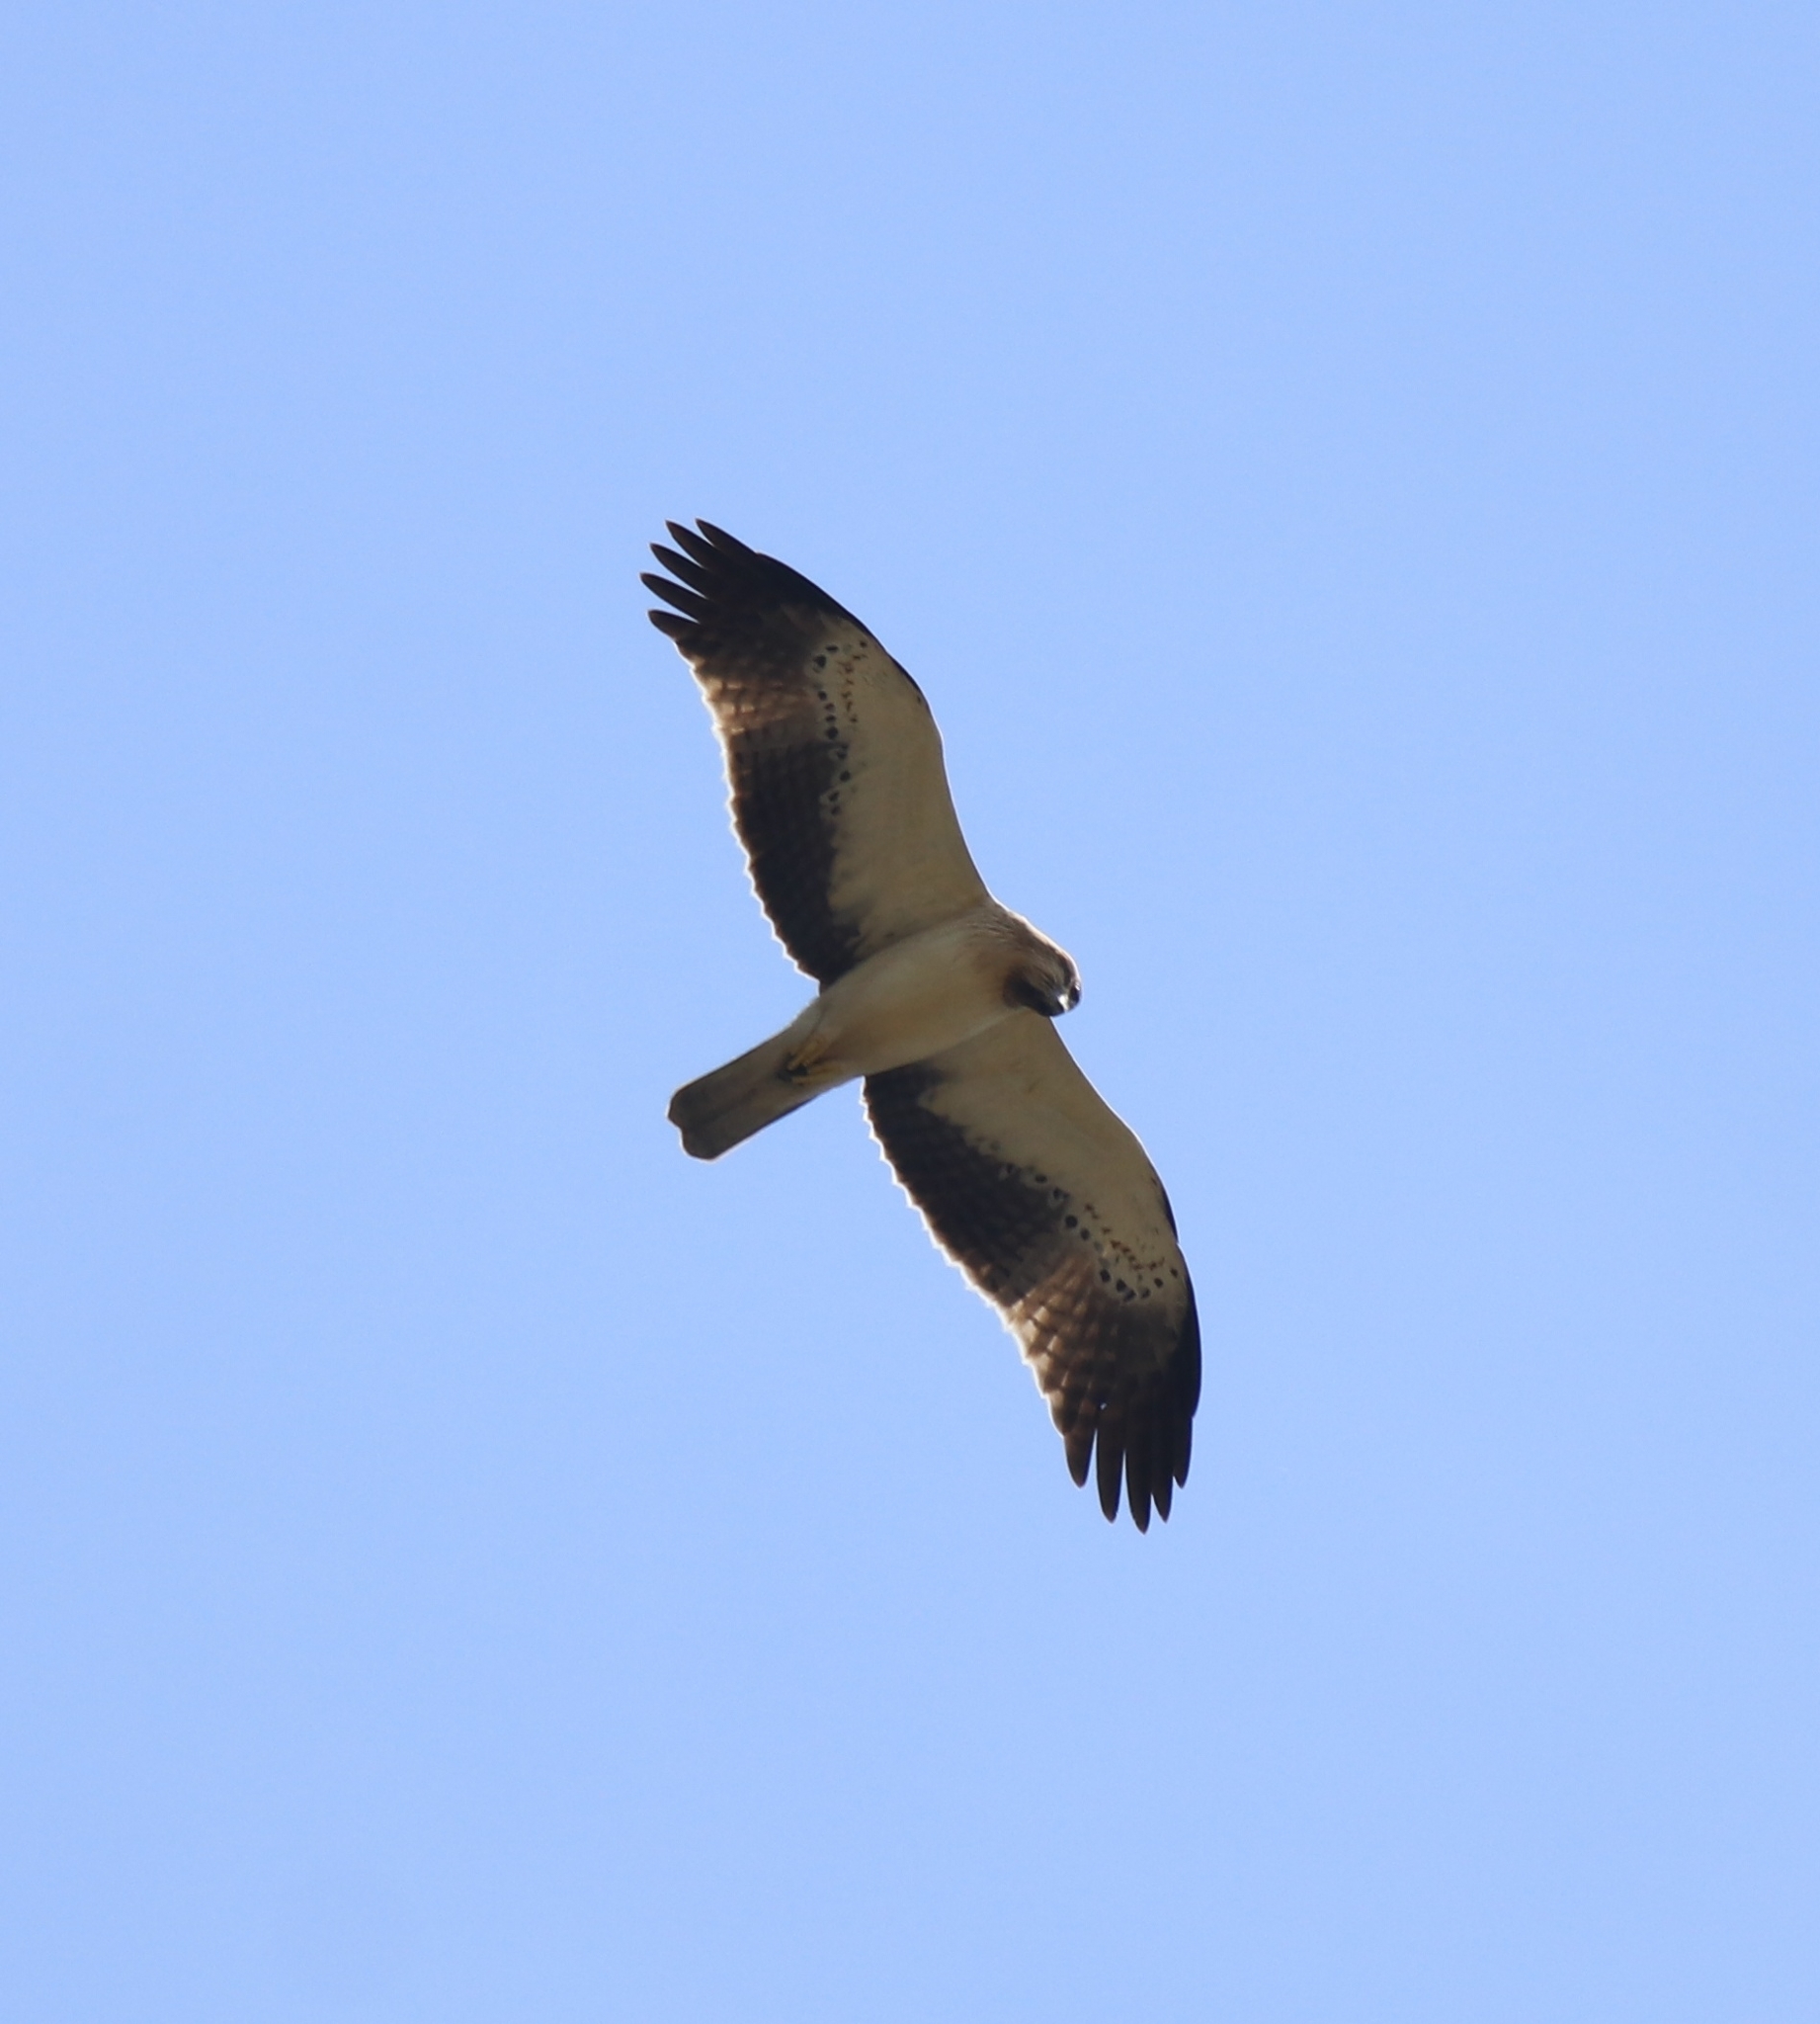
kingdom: Animalia
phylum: Chordata
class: Aves
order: Accipitriformes
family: Accipitridae
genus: Hieraaetus
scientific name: Hieraaetus pennatus
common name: Booted eagle
